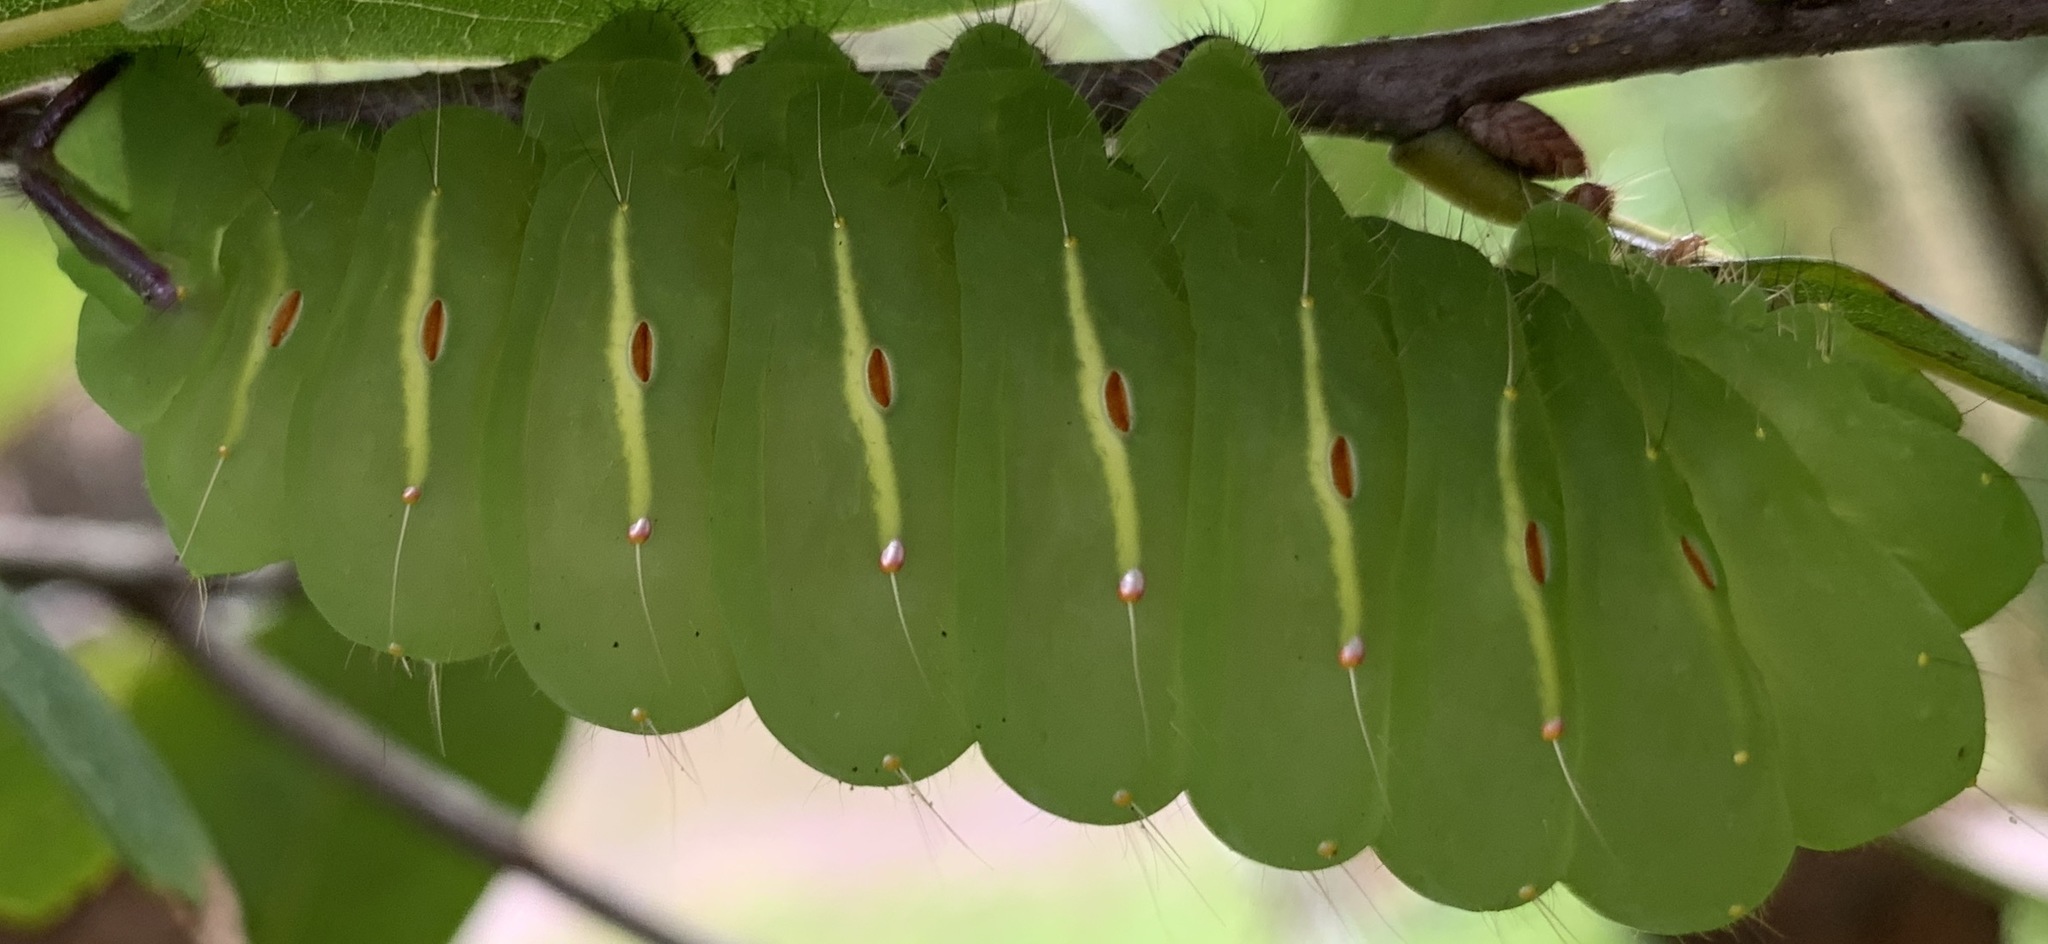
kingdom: Animalia
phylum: Arthropoda
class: Insecta
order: Lepidoptera
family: Saturniidae
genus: Antheraea
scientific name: Antheraea polyphemus
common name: Polyphemus moth
